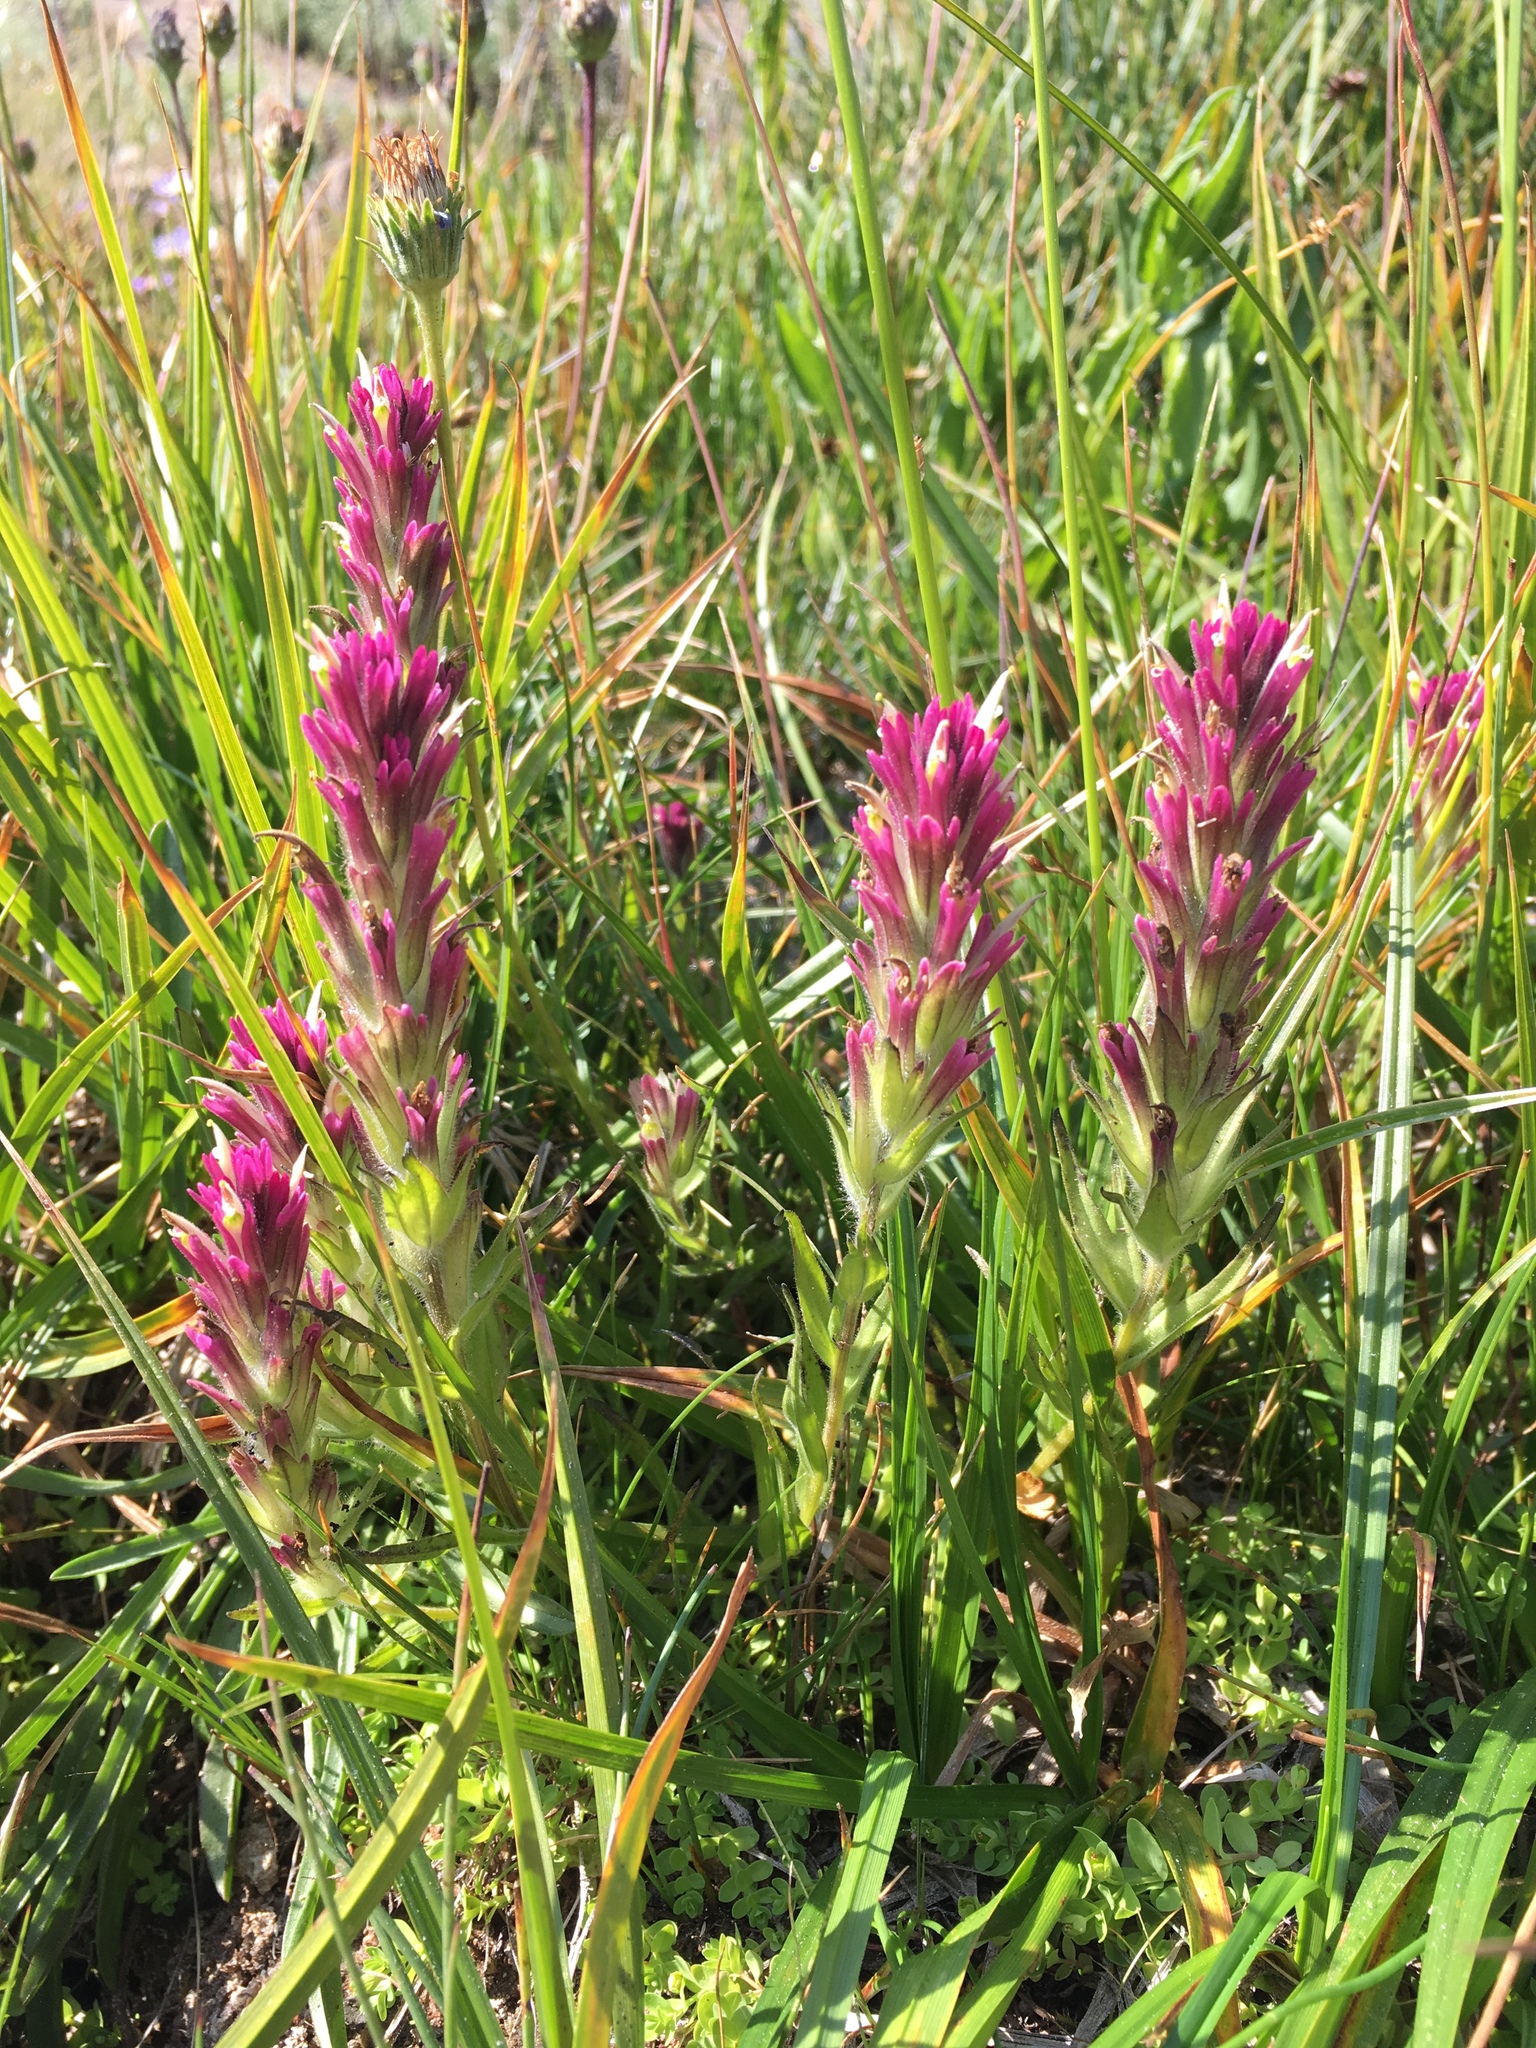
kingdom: Plantae
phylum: Tracheophyta
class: Magnoliopsida
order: Lamiales
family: Orobanchaceae
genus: Castilleja
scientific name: Castilleja lassenensis
